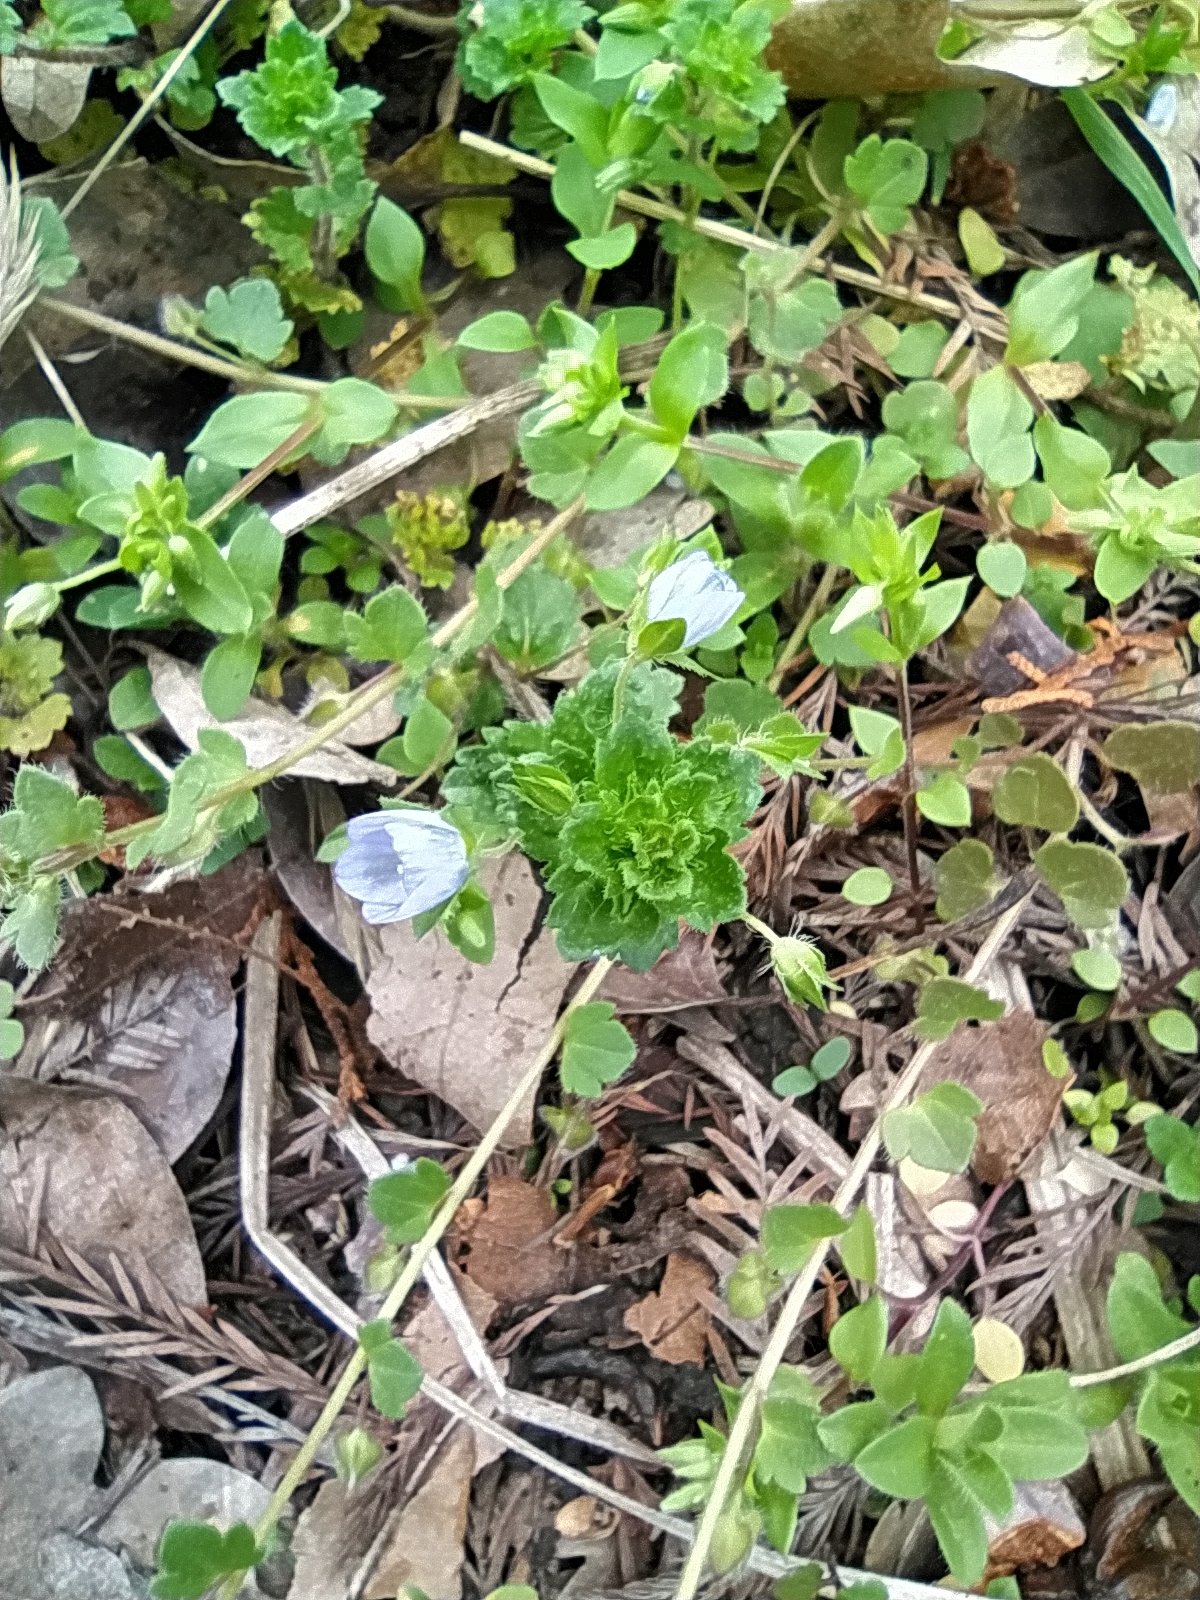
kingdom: Plantae
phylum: Tracheophyta
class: Magnoliopsida
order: Lamiales
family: Plantaginaceae
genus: Veronica
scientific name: Veronica persica
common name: Common field-speedwell
